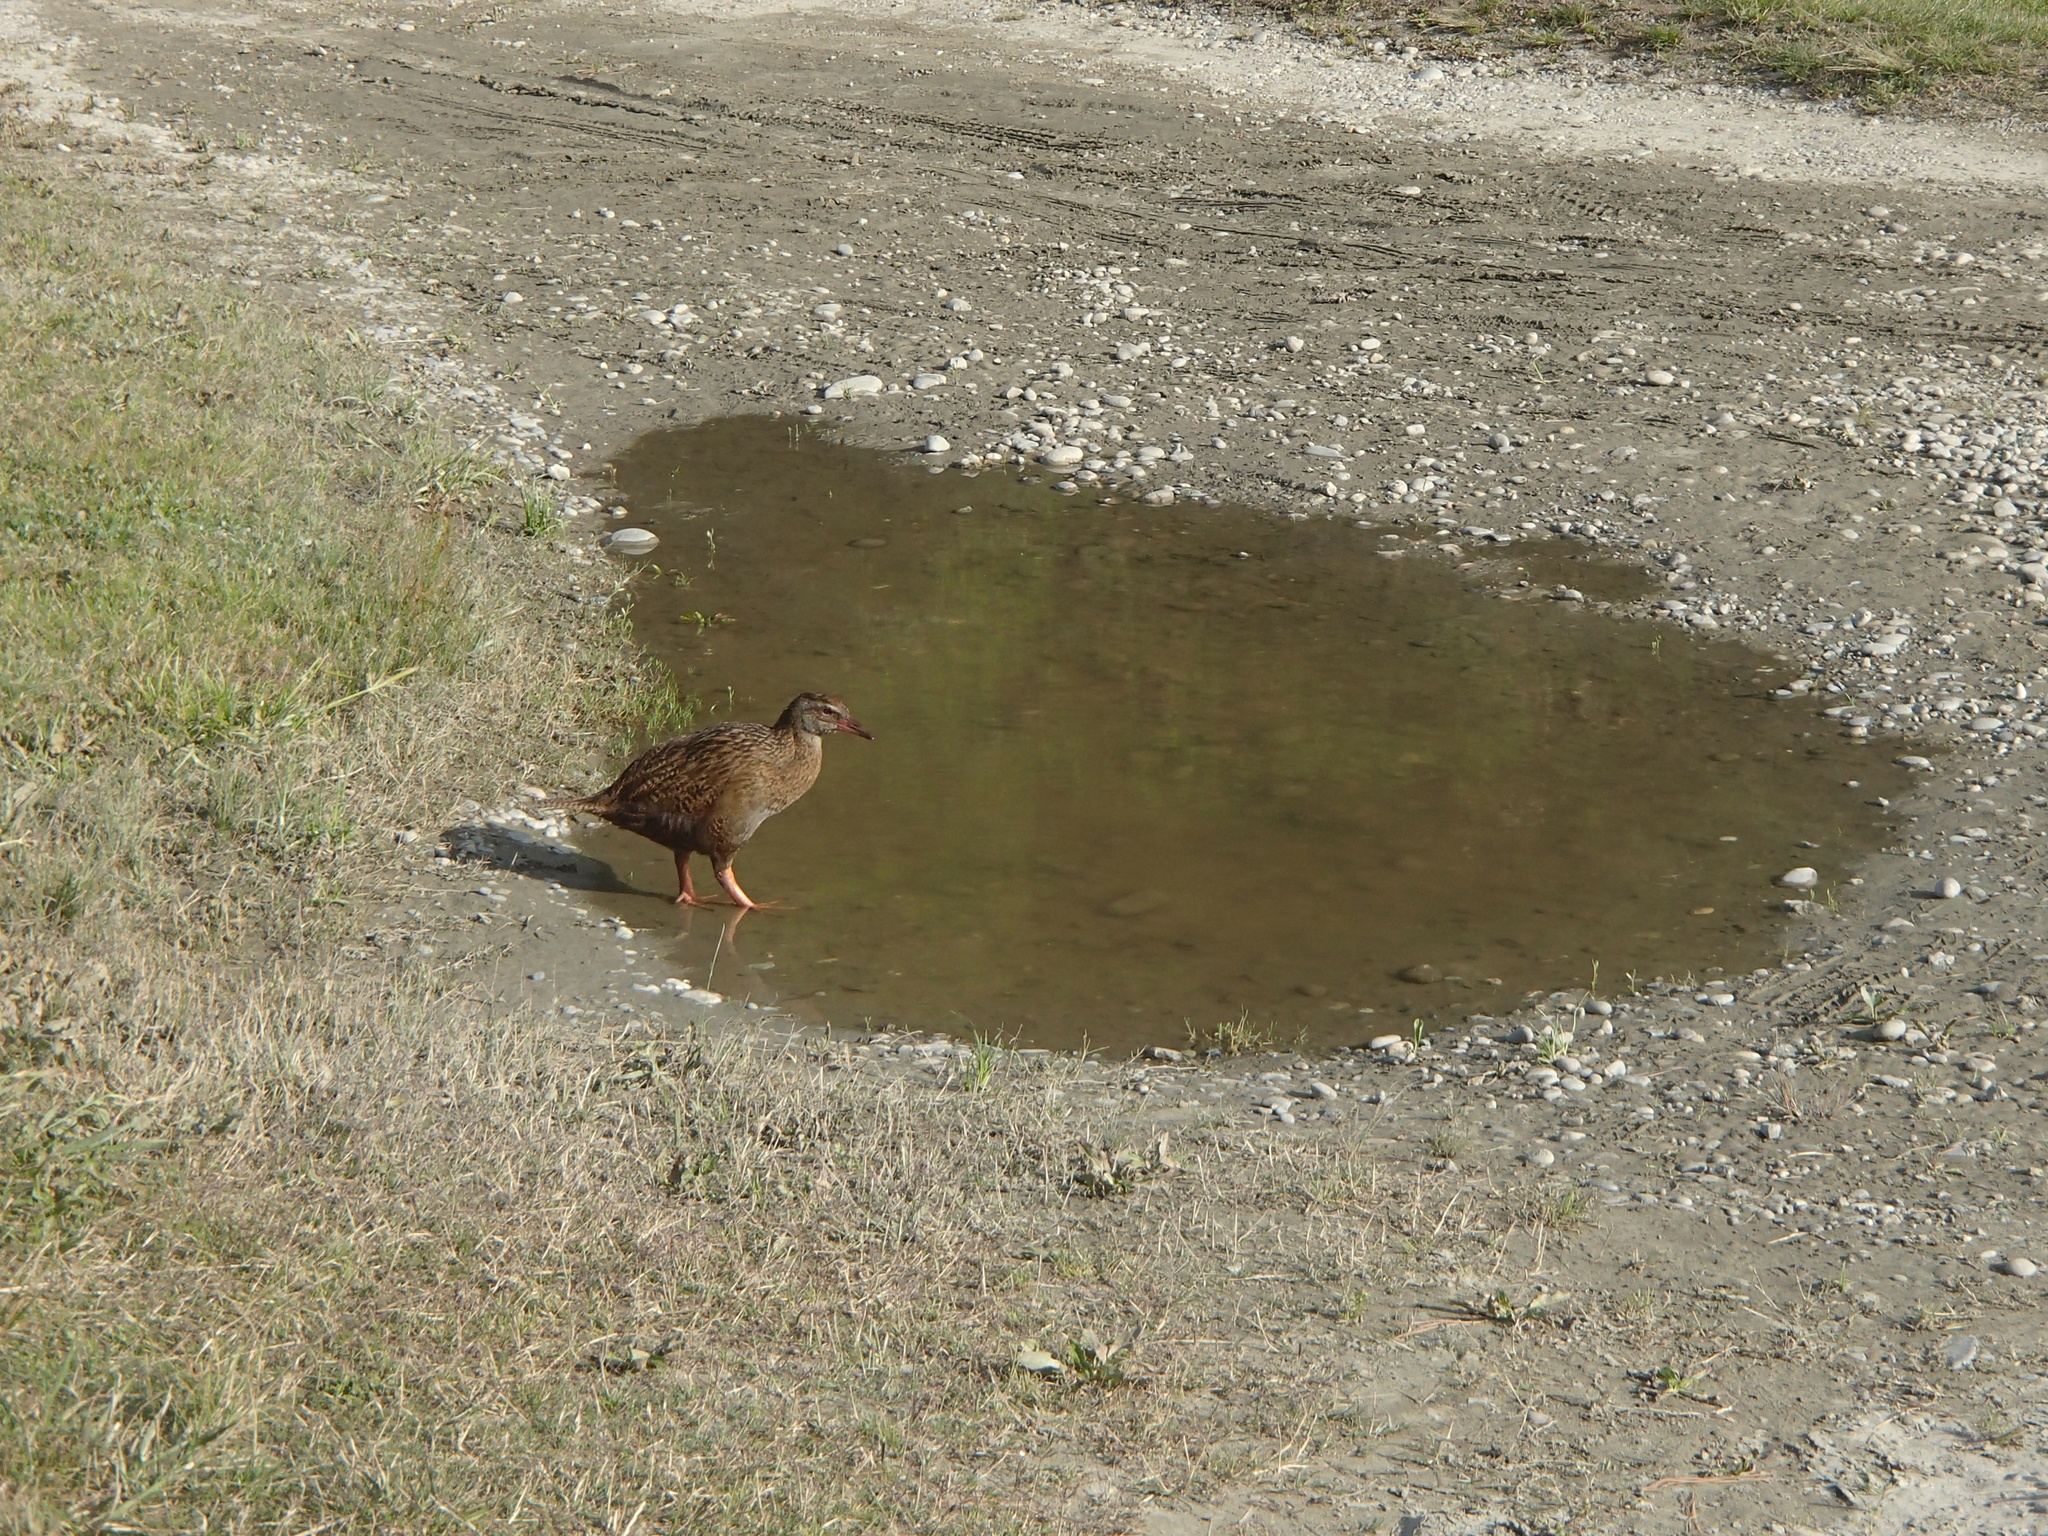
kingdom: Animalia
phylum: Chordata
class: Aves
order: Gruiformes
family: Rallidae
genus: Gallirallus
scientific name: Gallirallus australis
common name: Weka
